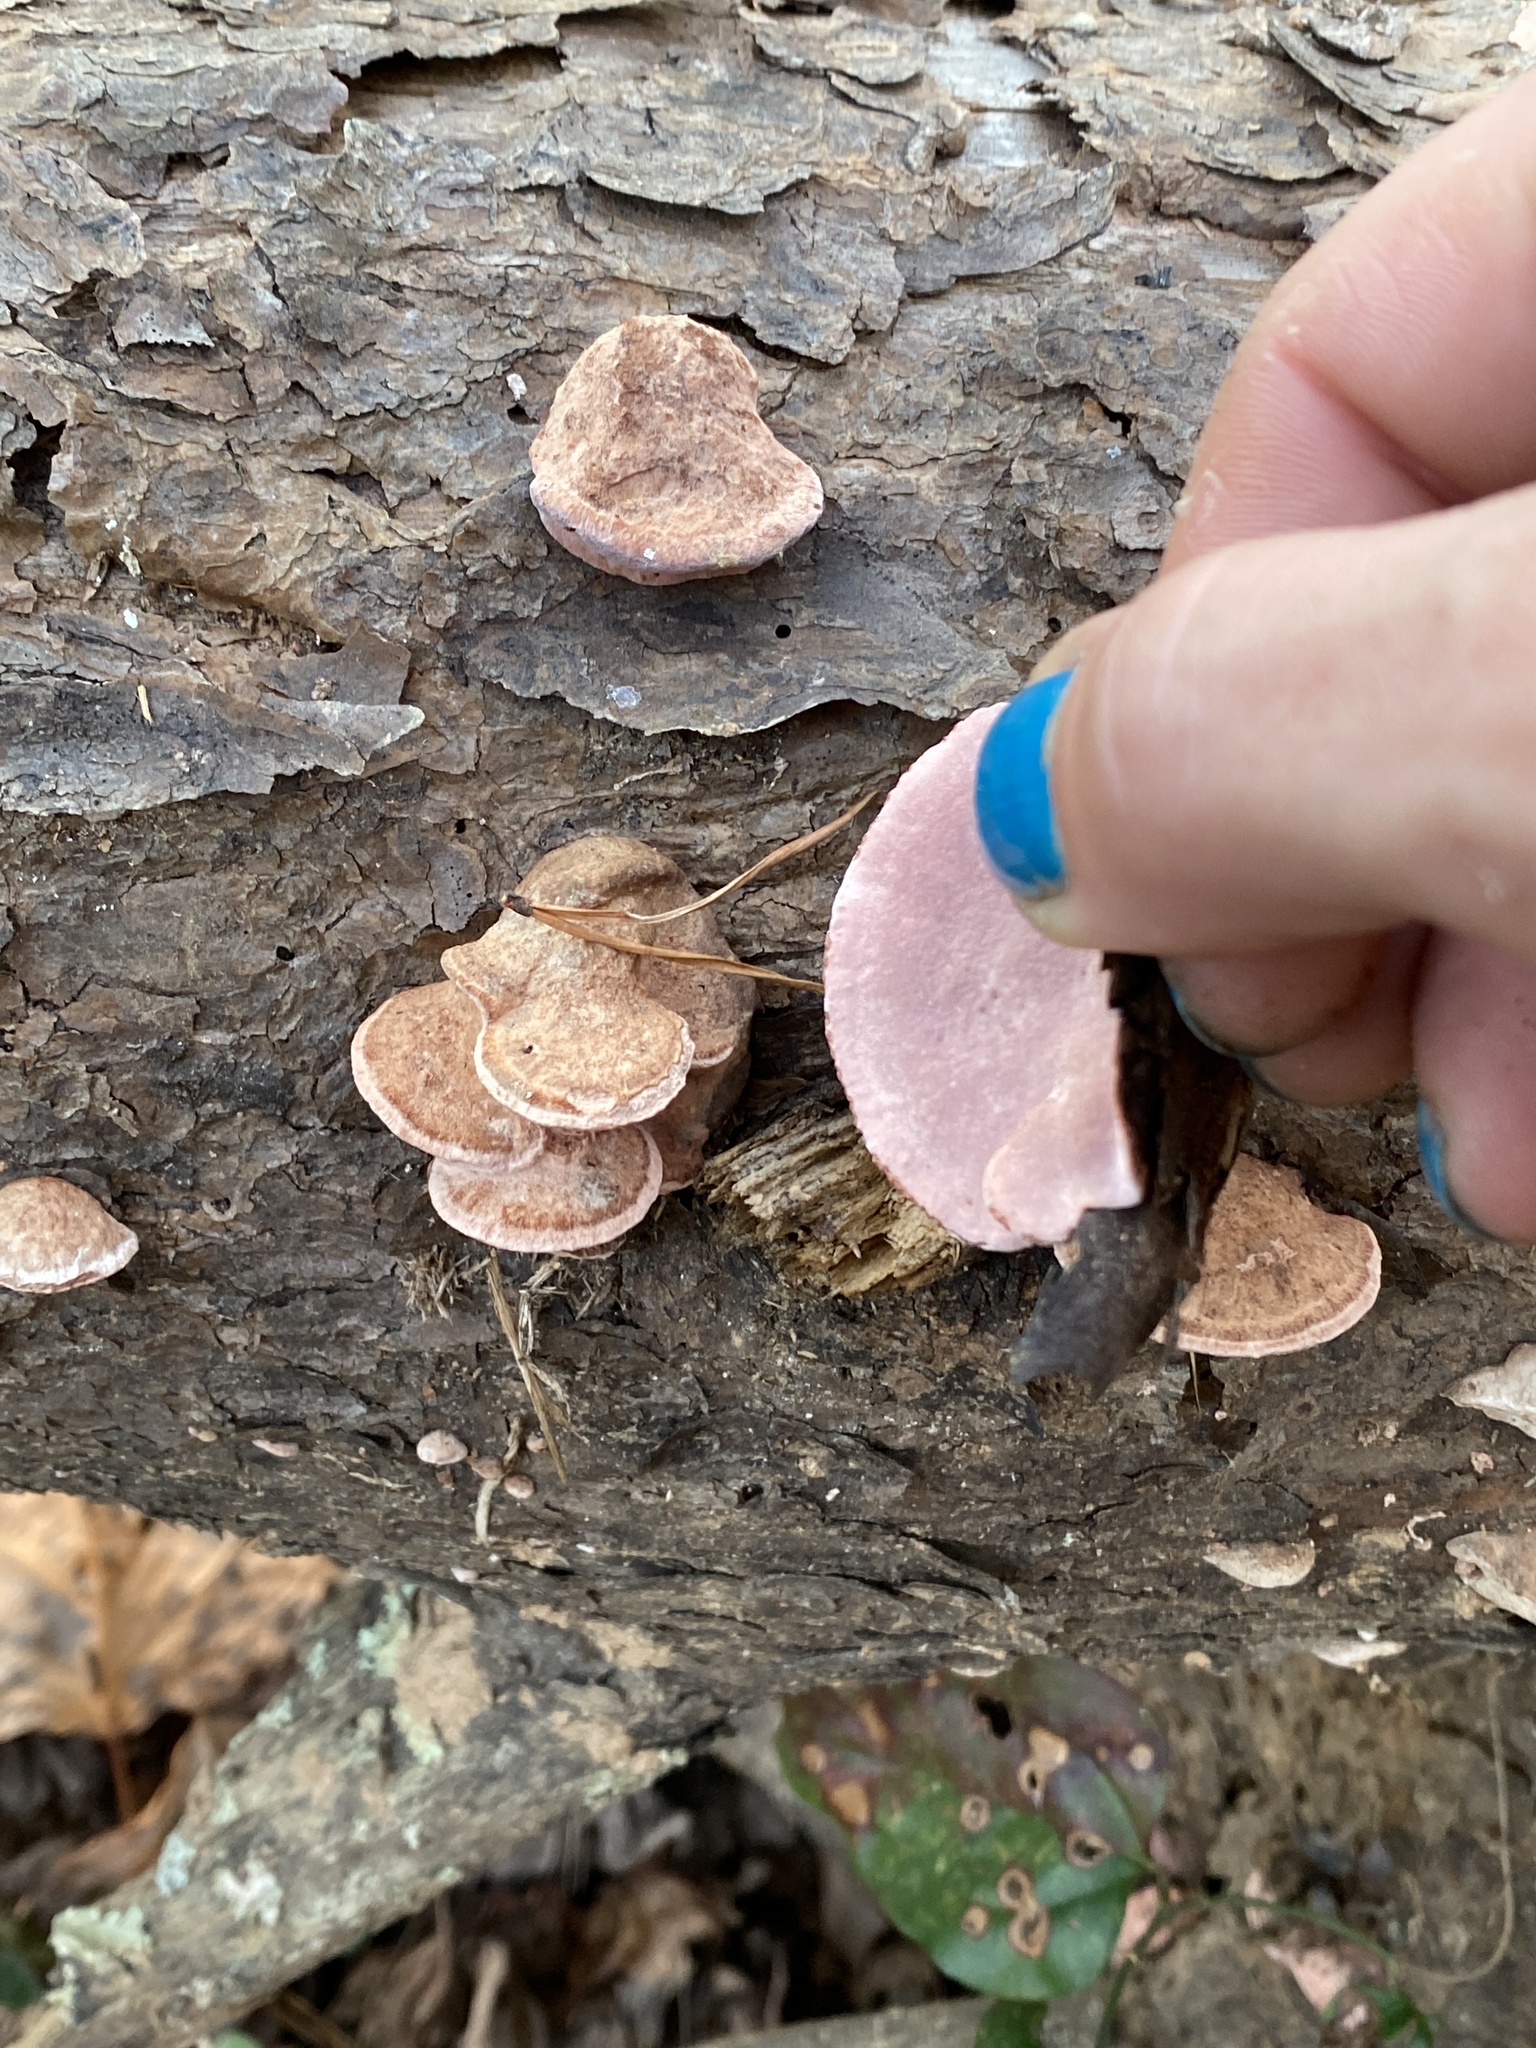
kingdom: Fungi
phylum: Basidiomycota
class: Agaricomycetes
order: Polyporales
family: Fomitopsidaceae
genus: Rhodofomes
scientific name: Rhodofomes cajanderi
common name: Rosy conk
